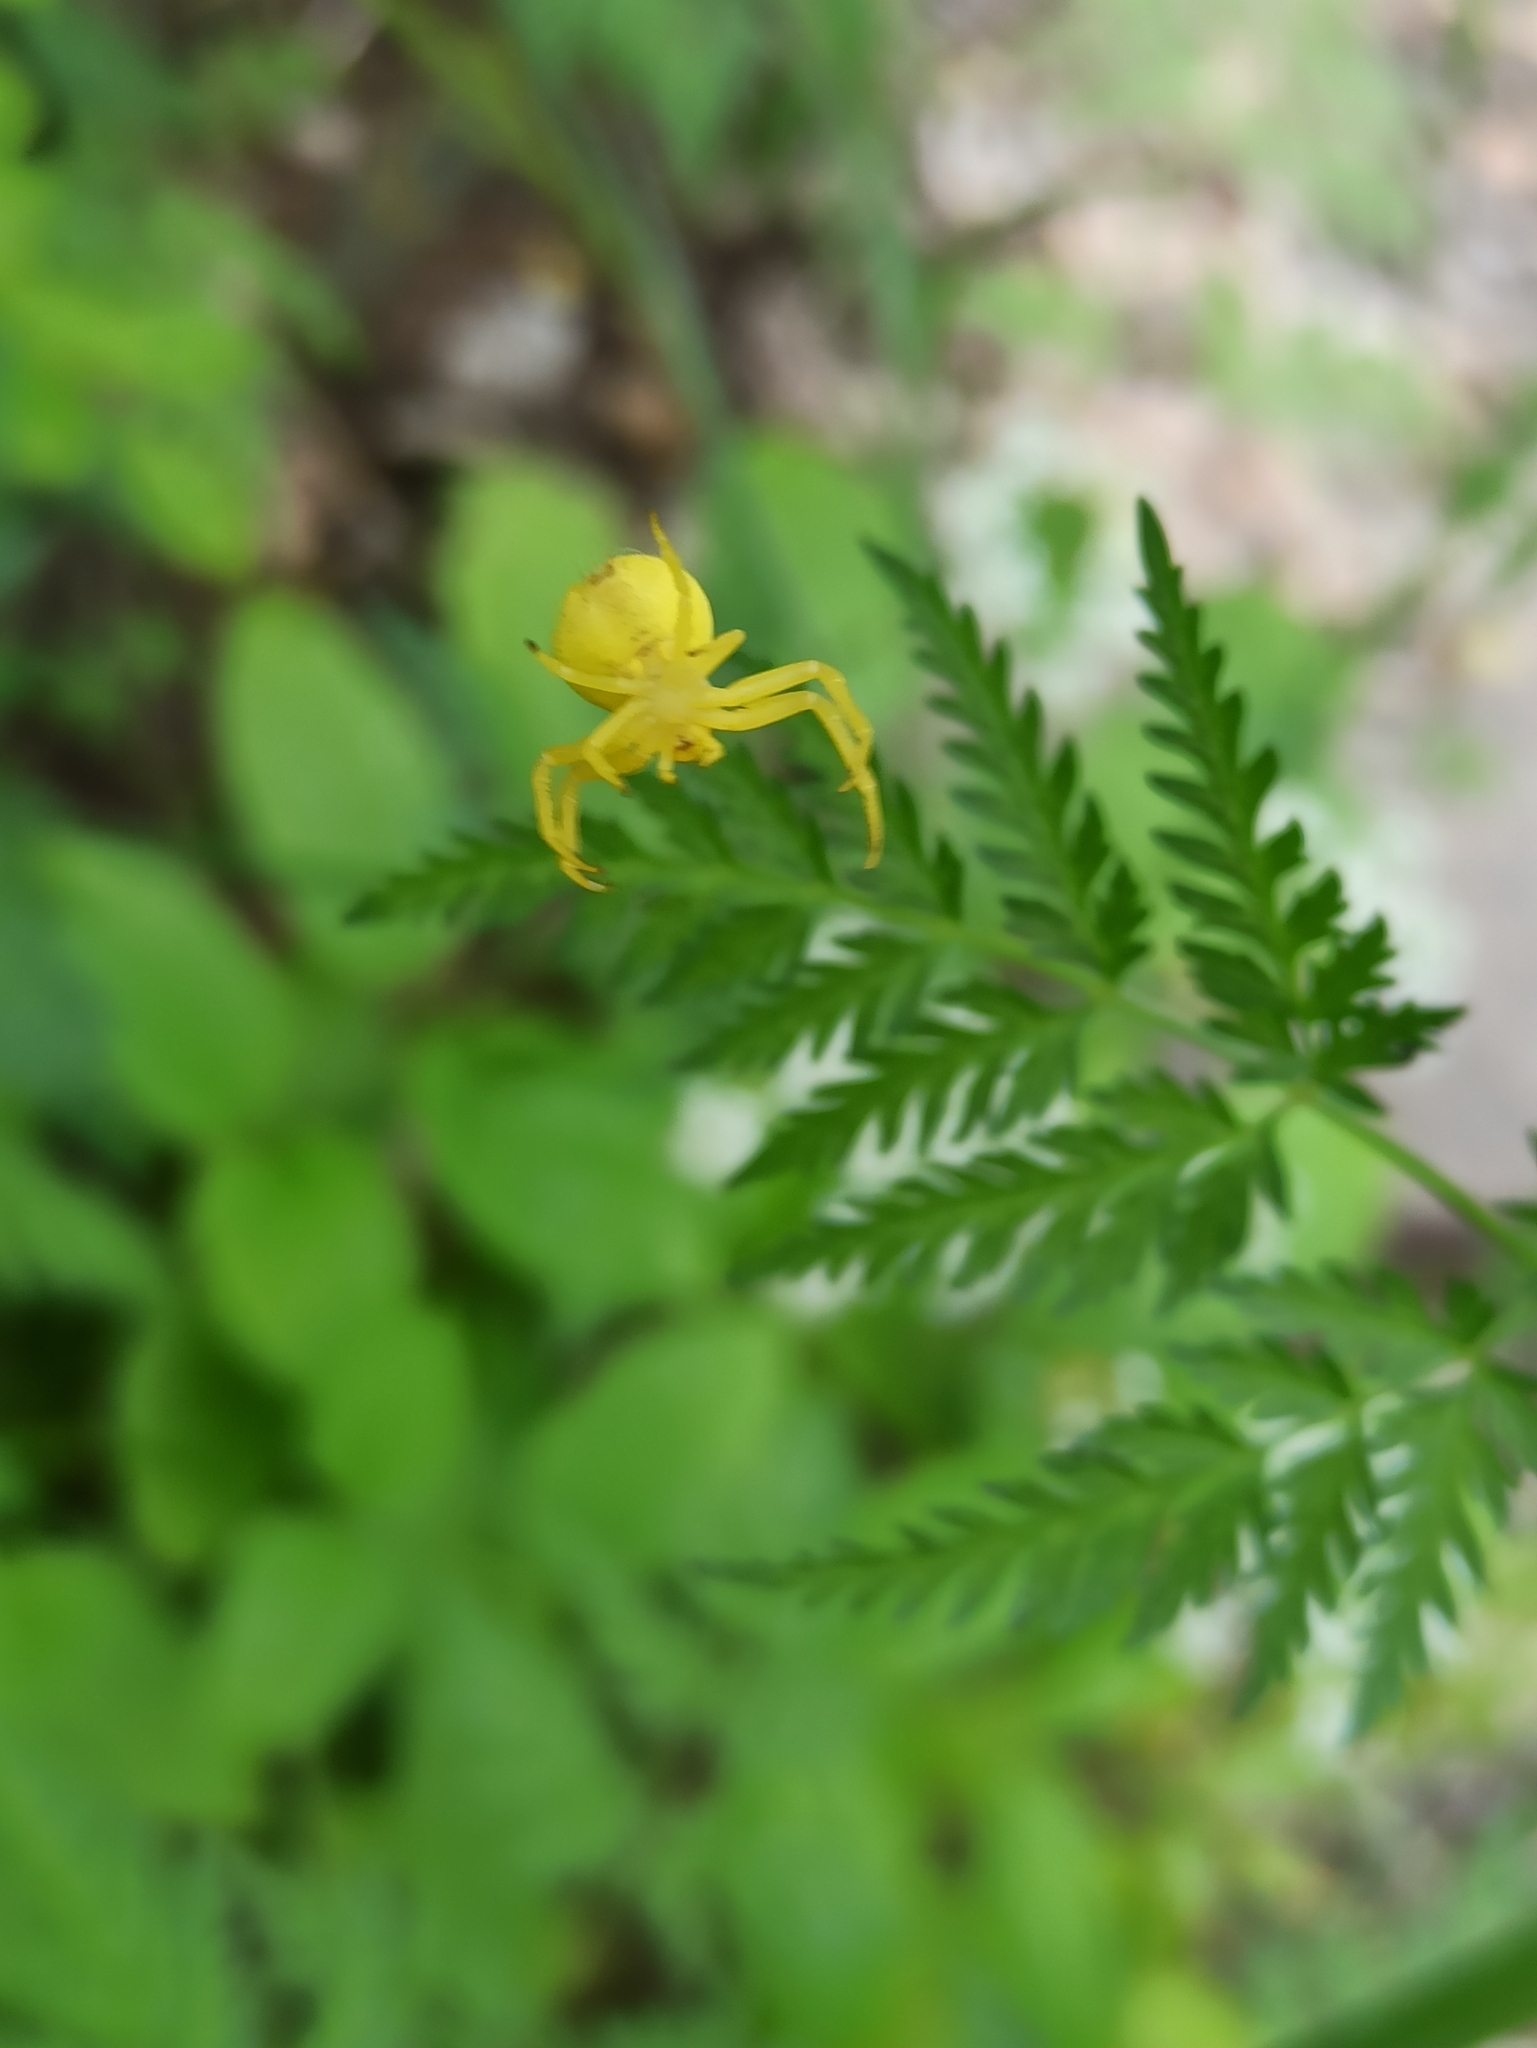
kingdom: Animalia
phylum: Arthropoda
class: Arachnida
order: Araneae
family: Thomisidae
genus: Misumena
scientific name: Misumena vatia
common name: Goldenrod crab spider
